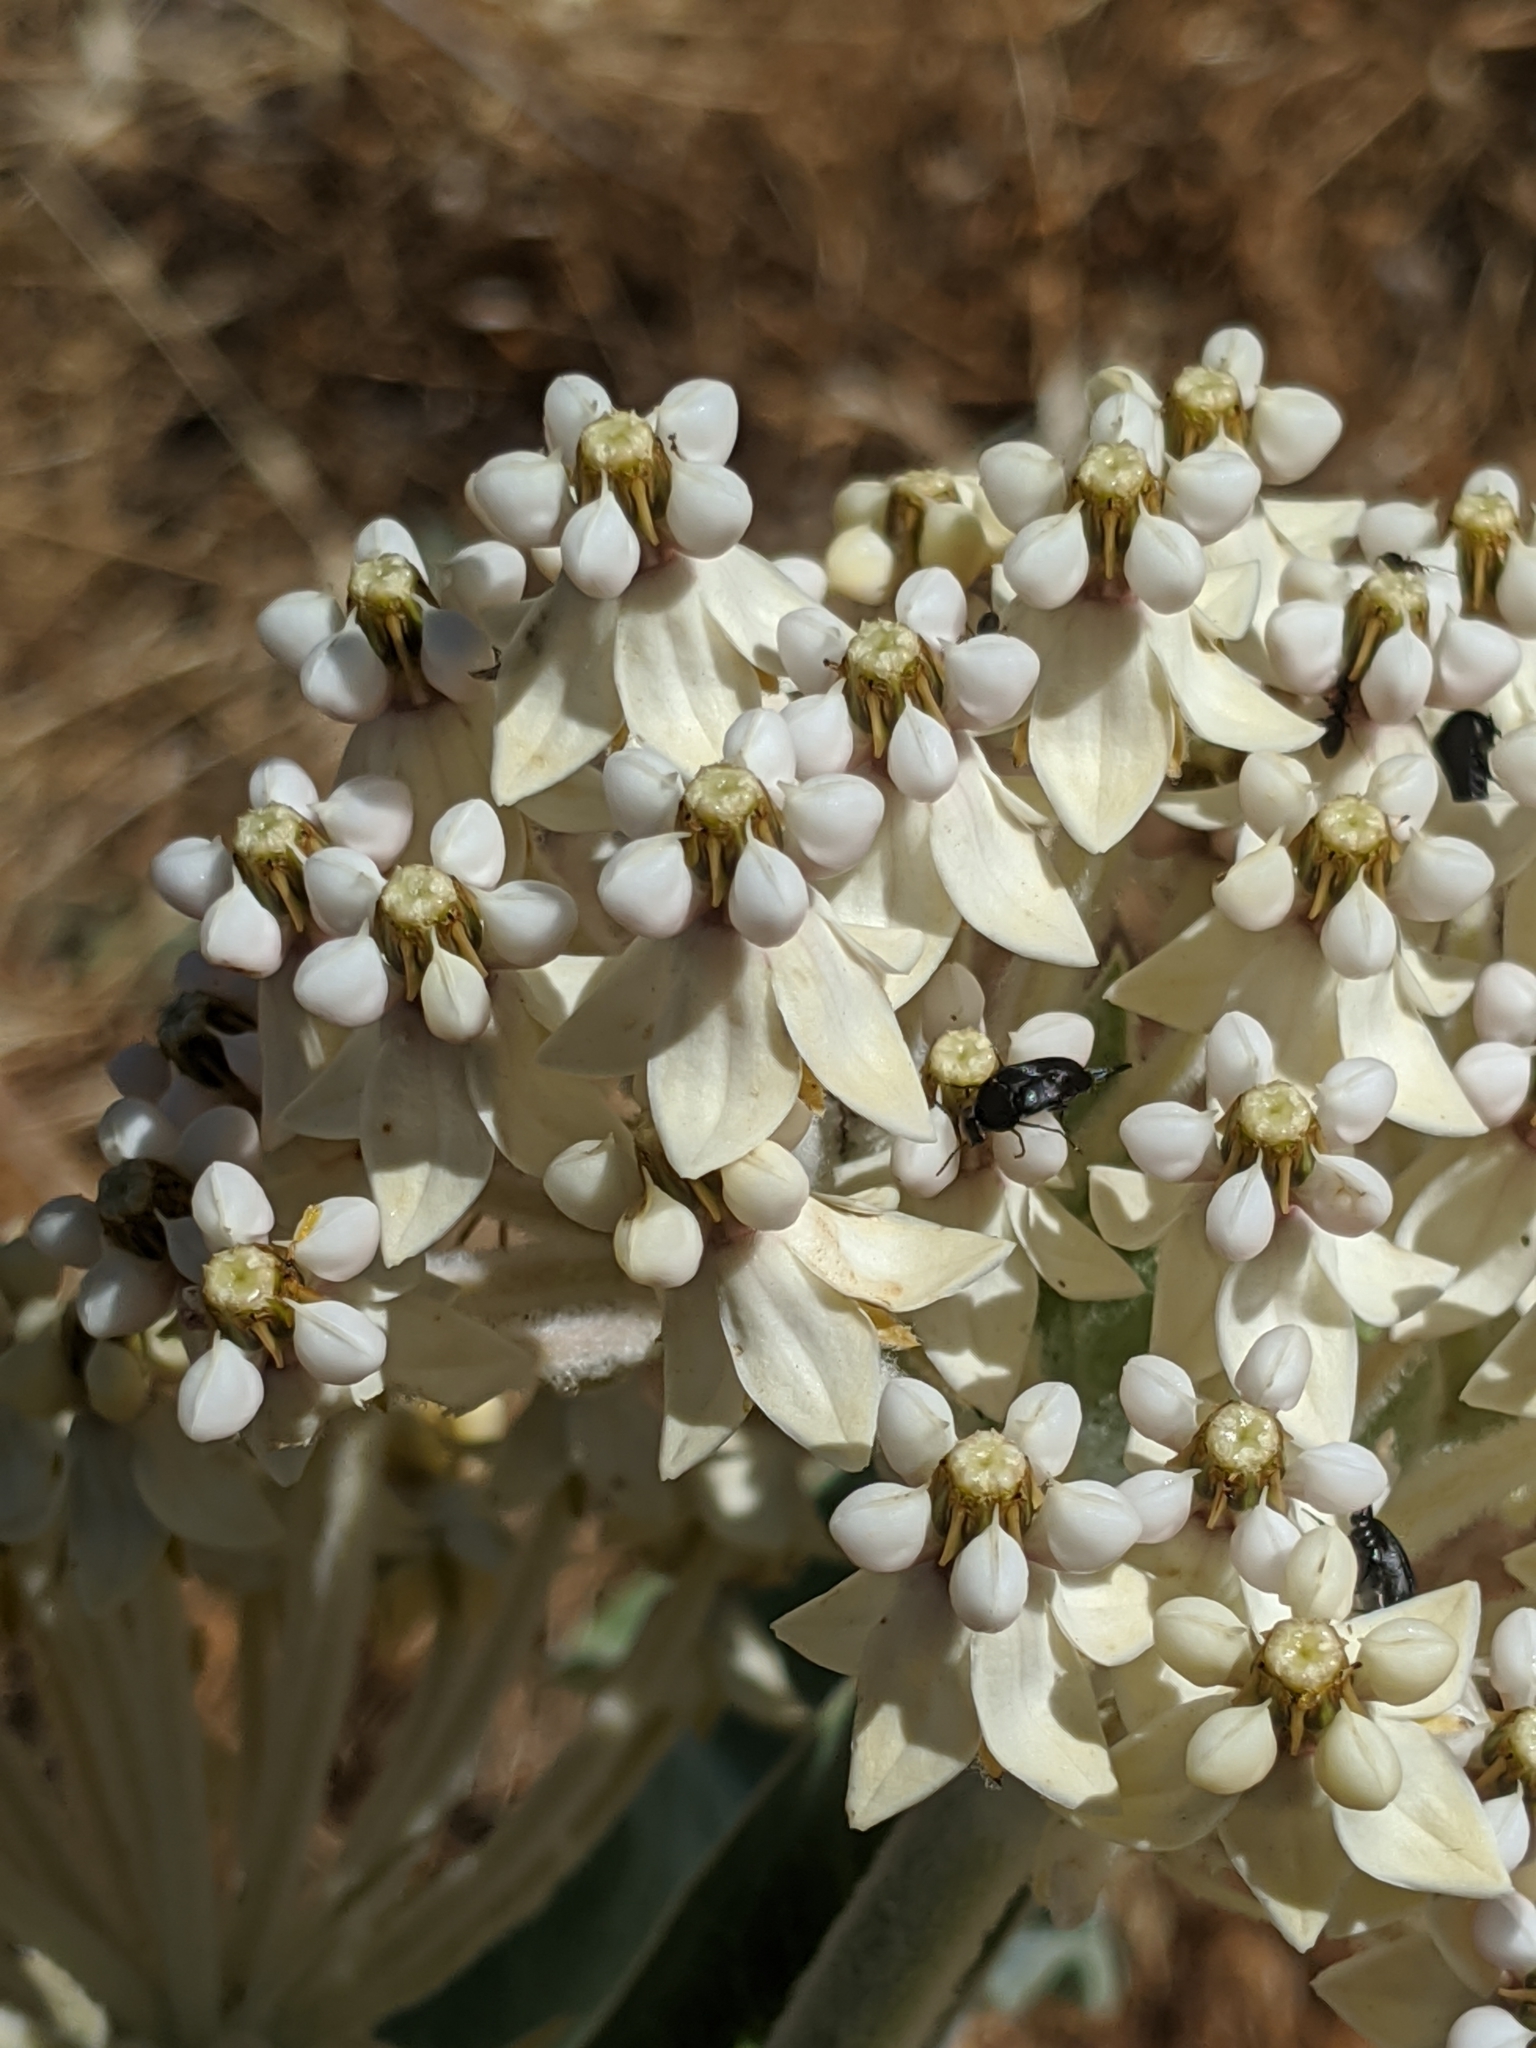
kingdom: Plantae
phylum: Tracheophyta
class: Magnoliopsida
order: Gentianales
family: Apocynaceae
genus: Asclepias
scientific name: Asclepias eriocarpa
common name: Indian milkweed
